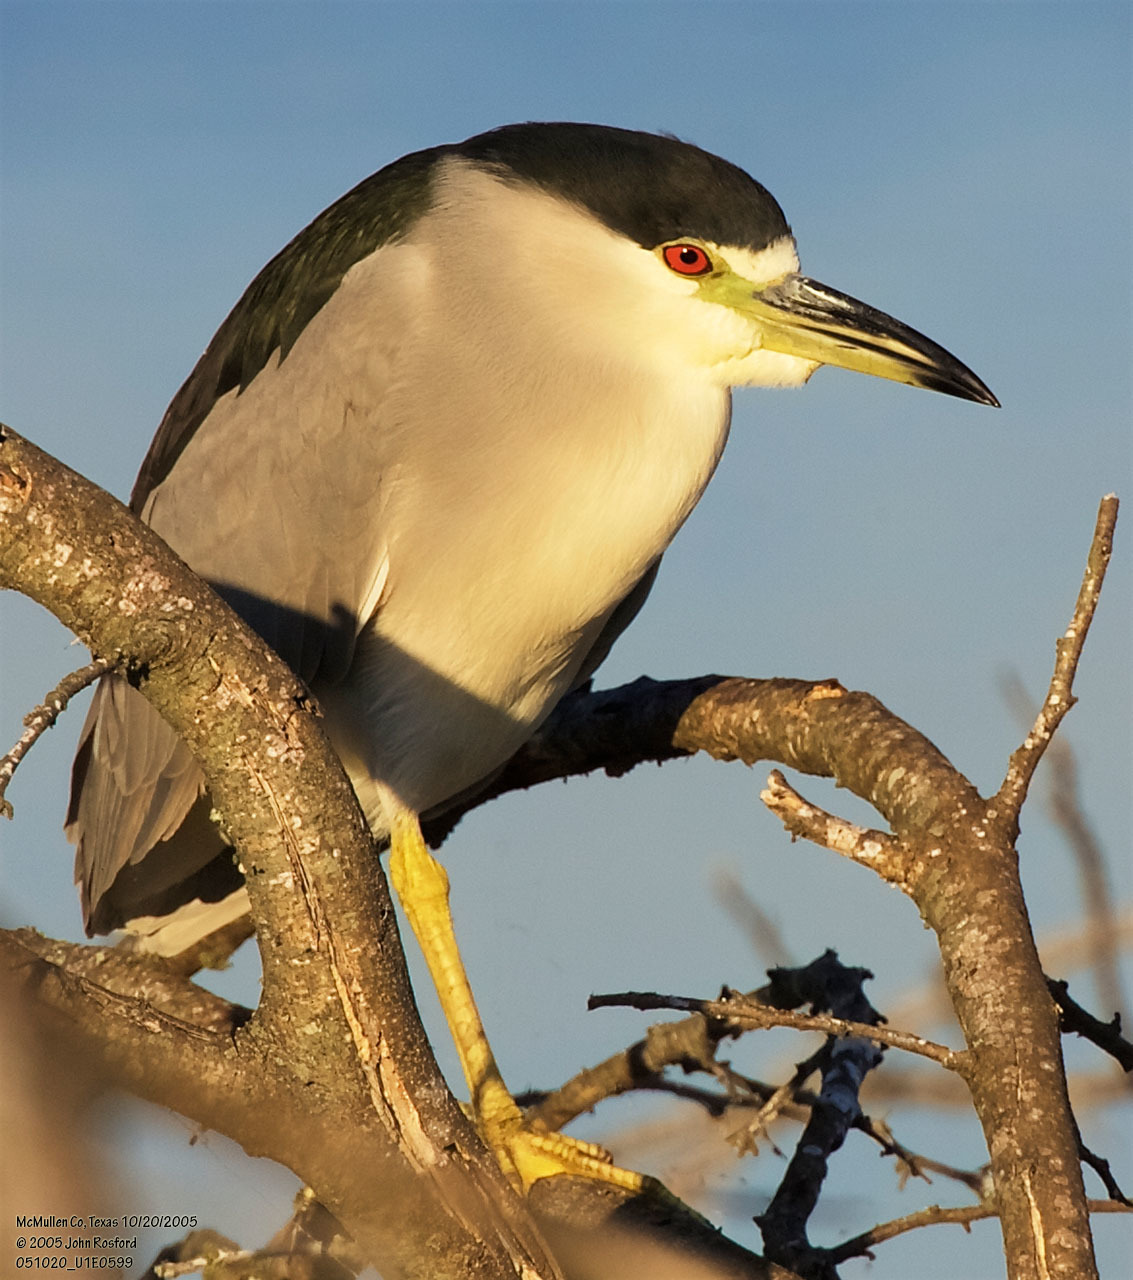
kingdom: Animalia
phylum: Chordata
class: Aves
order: Pelecaniformes
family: Ardeidae
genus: Nycticorax
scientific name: Nycticorax nycticorax
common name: Black-crowned night heron
